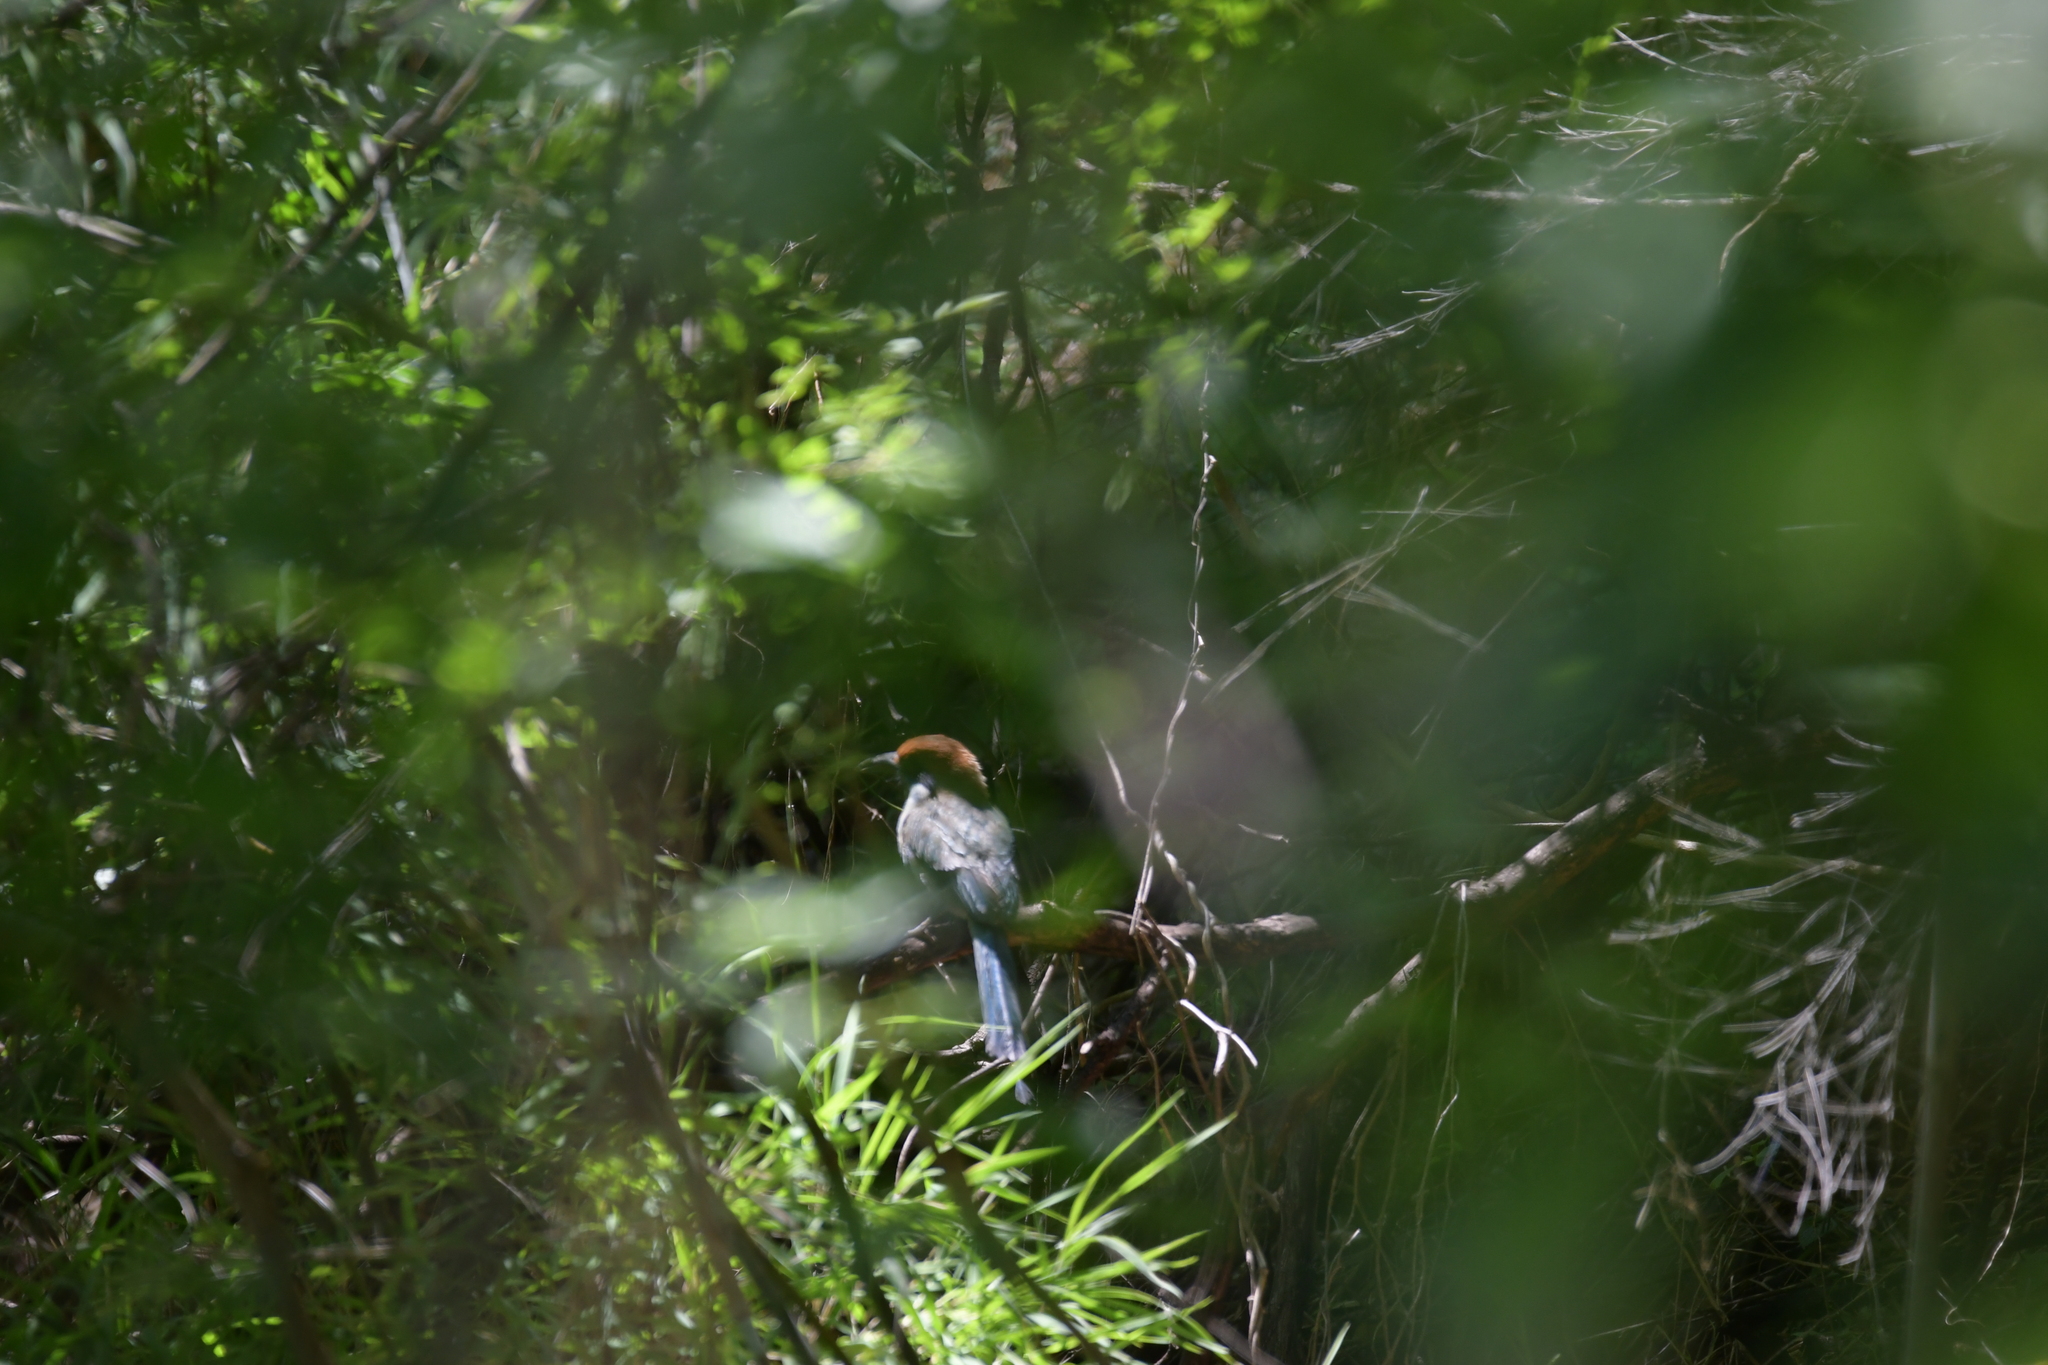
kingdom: Animalia
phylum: Chordata
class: Aves
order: Coraciiformes
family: Momotidae
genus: Momotus
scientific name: Momotus mexicanus
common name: Russet-crowned motmot
